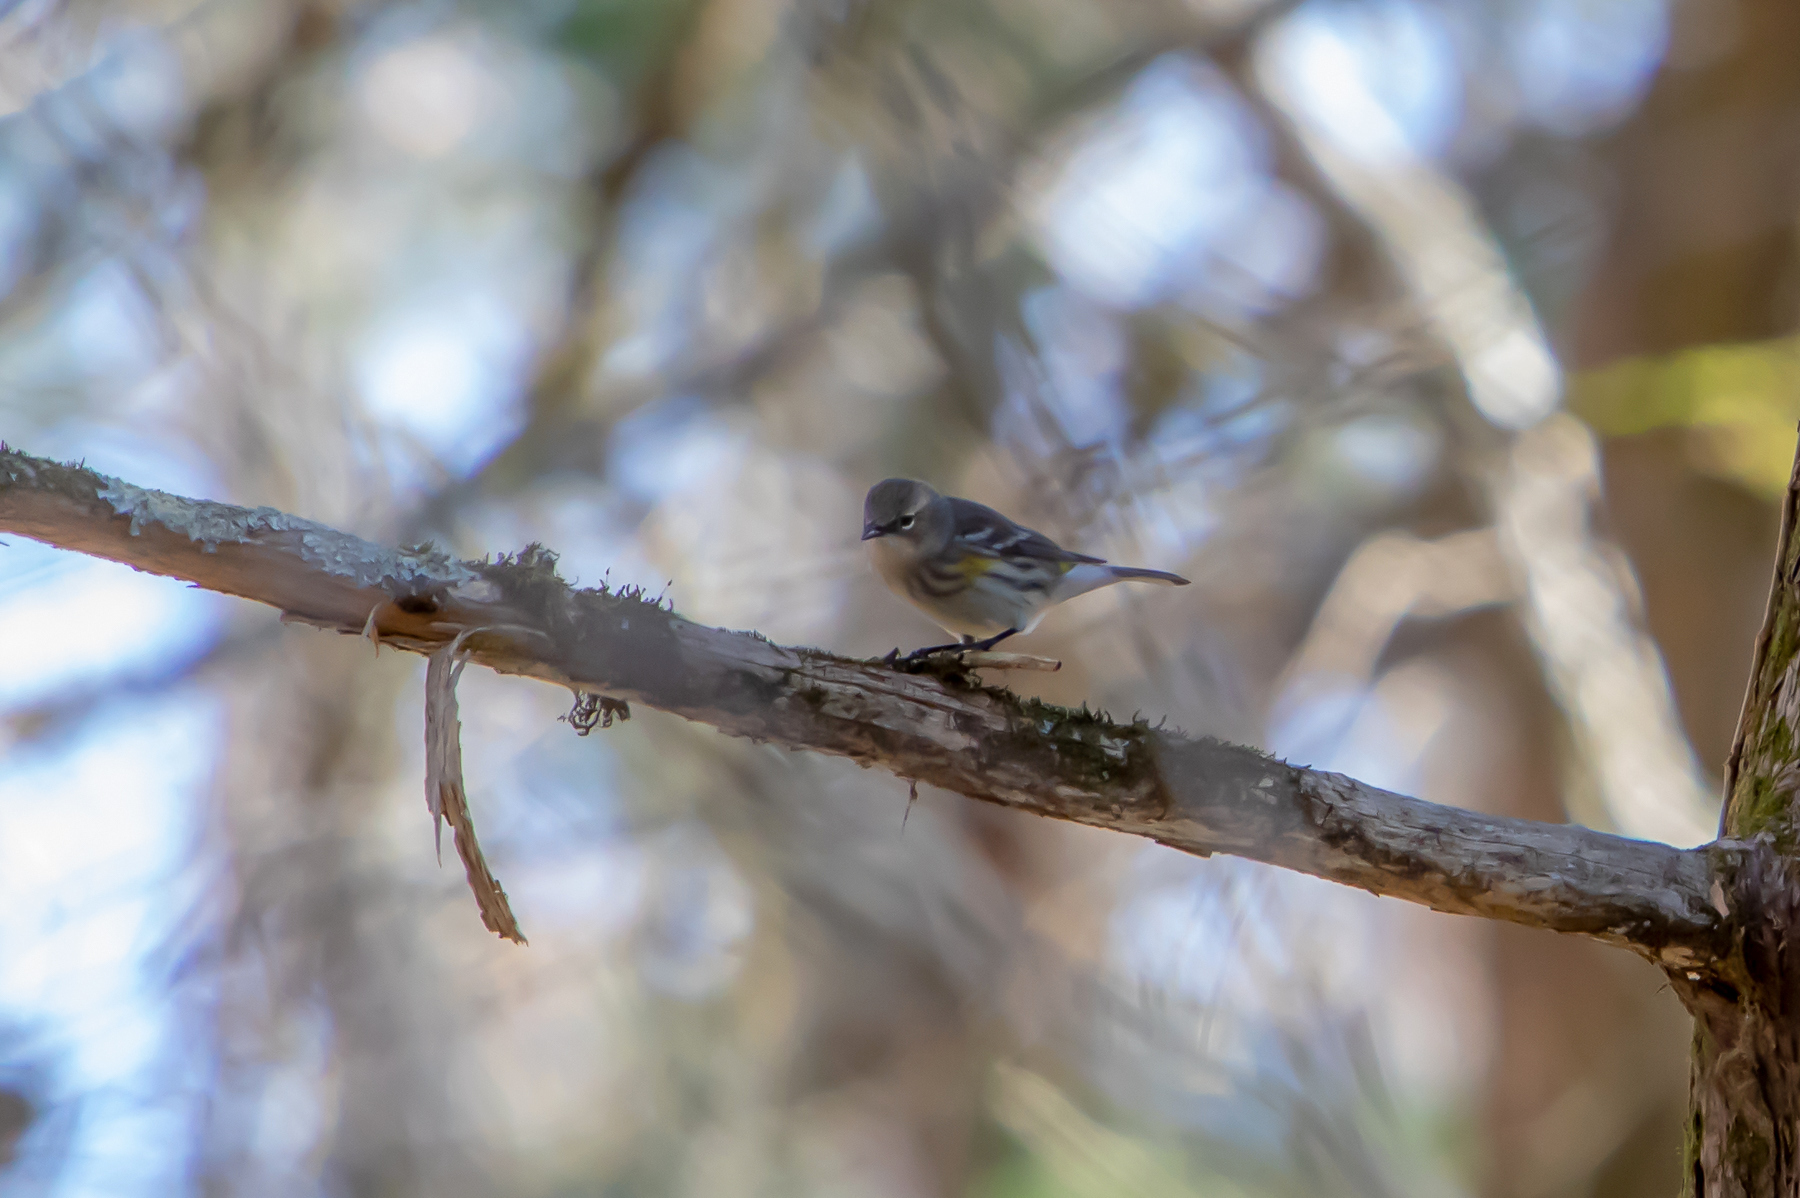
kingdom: Animalia
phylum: Chordata
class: Aves
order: Passeriformes
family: Parulidae
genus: Setophaga
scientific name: Setophaga coronata
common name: Myrtle warbler
